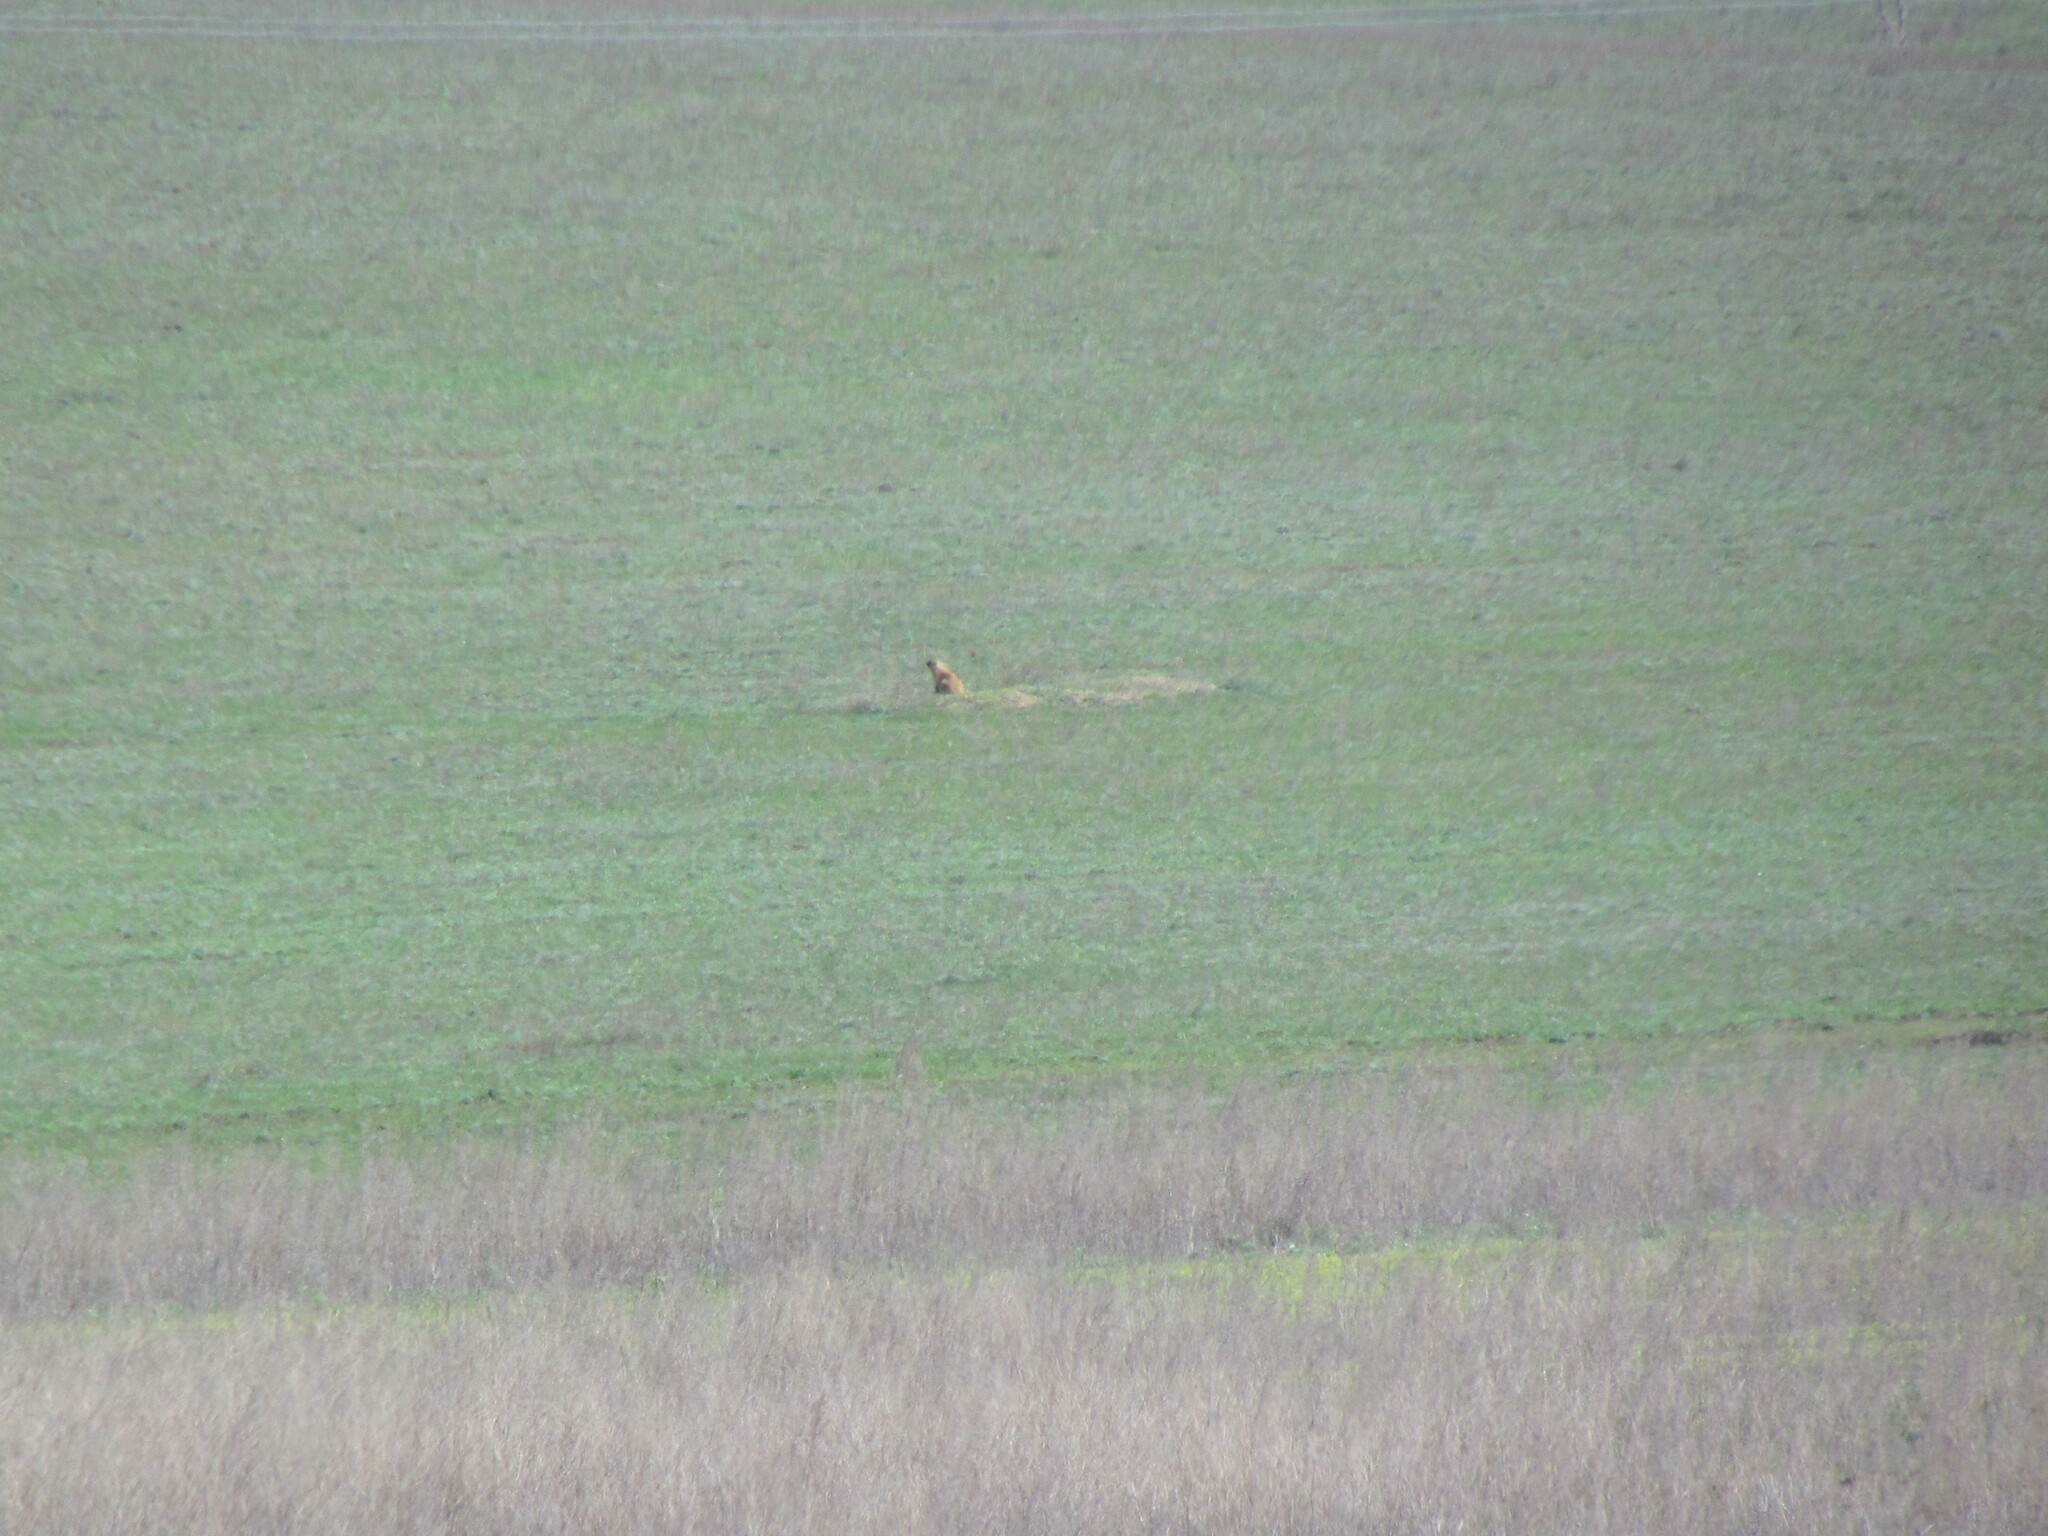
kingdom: Animalia
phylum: Chordata
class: Mammalia
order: Rodentia
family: Sciuridae
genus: Marmota
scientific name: Marmota bobak
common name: Bobak marmot
